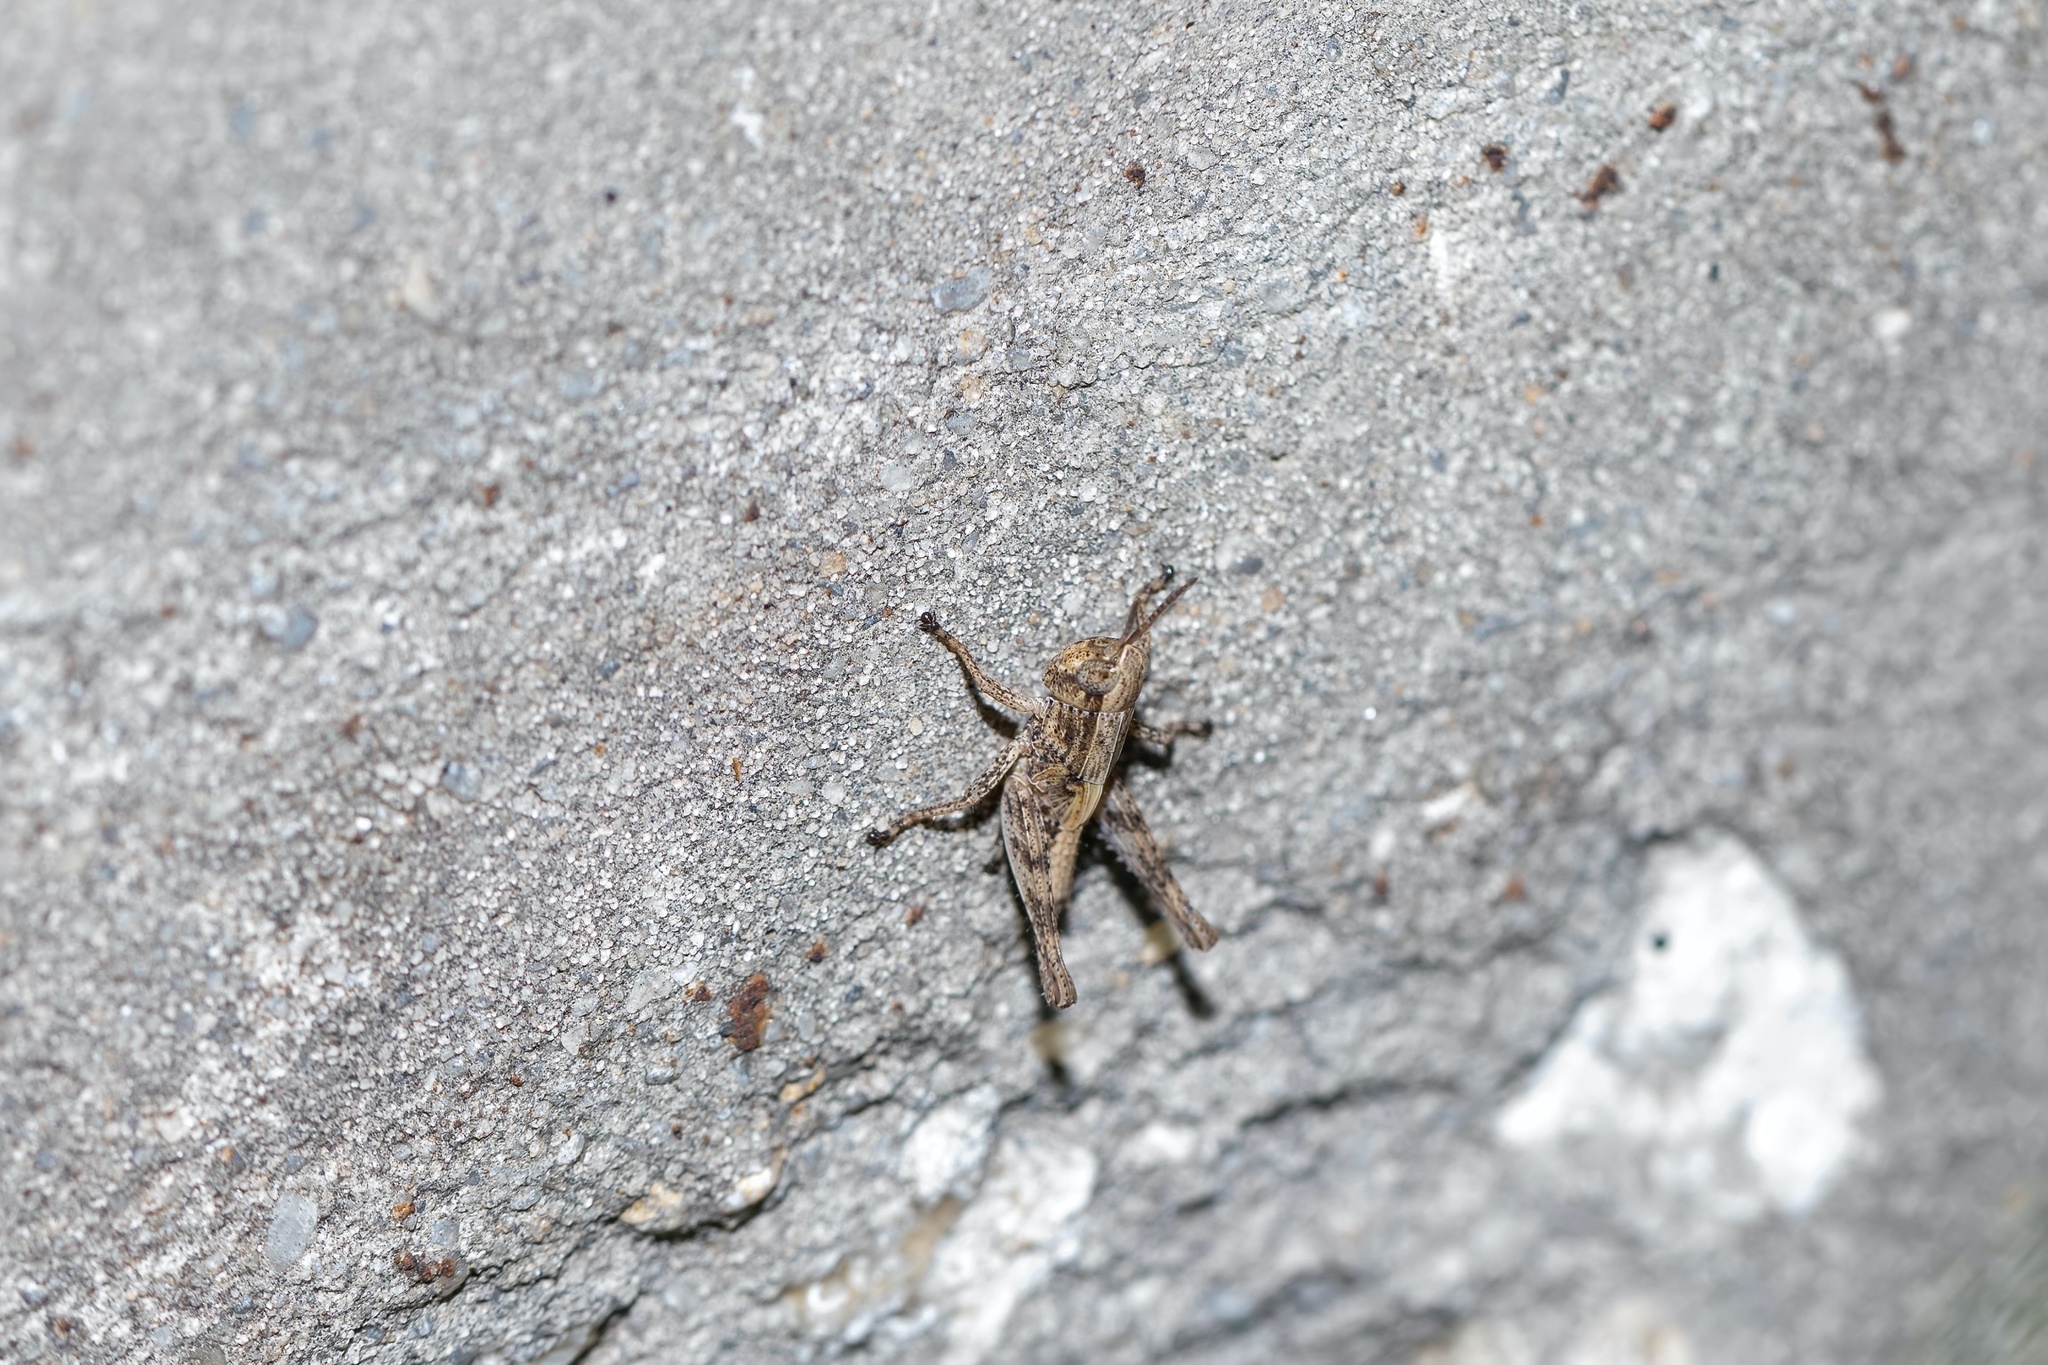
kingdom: Animalia
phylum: Arthropoda
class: Insecta
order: Orthoptera
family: Acrididae
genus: Dichromorpha
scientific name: Dichromorpha viridis
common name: Short-winged green grasshopper
